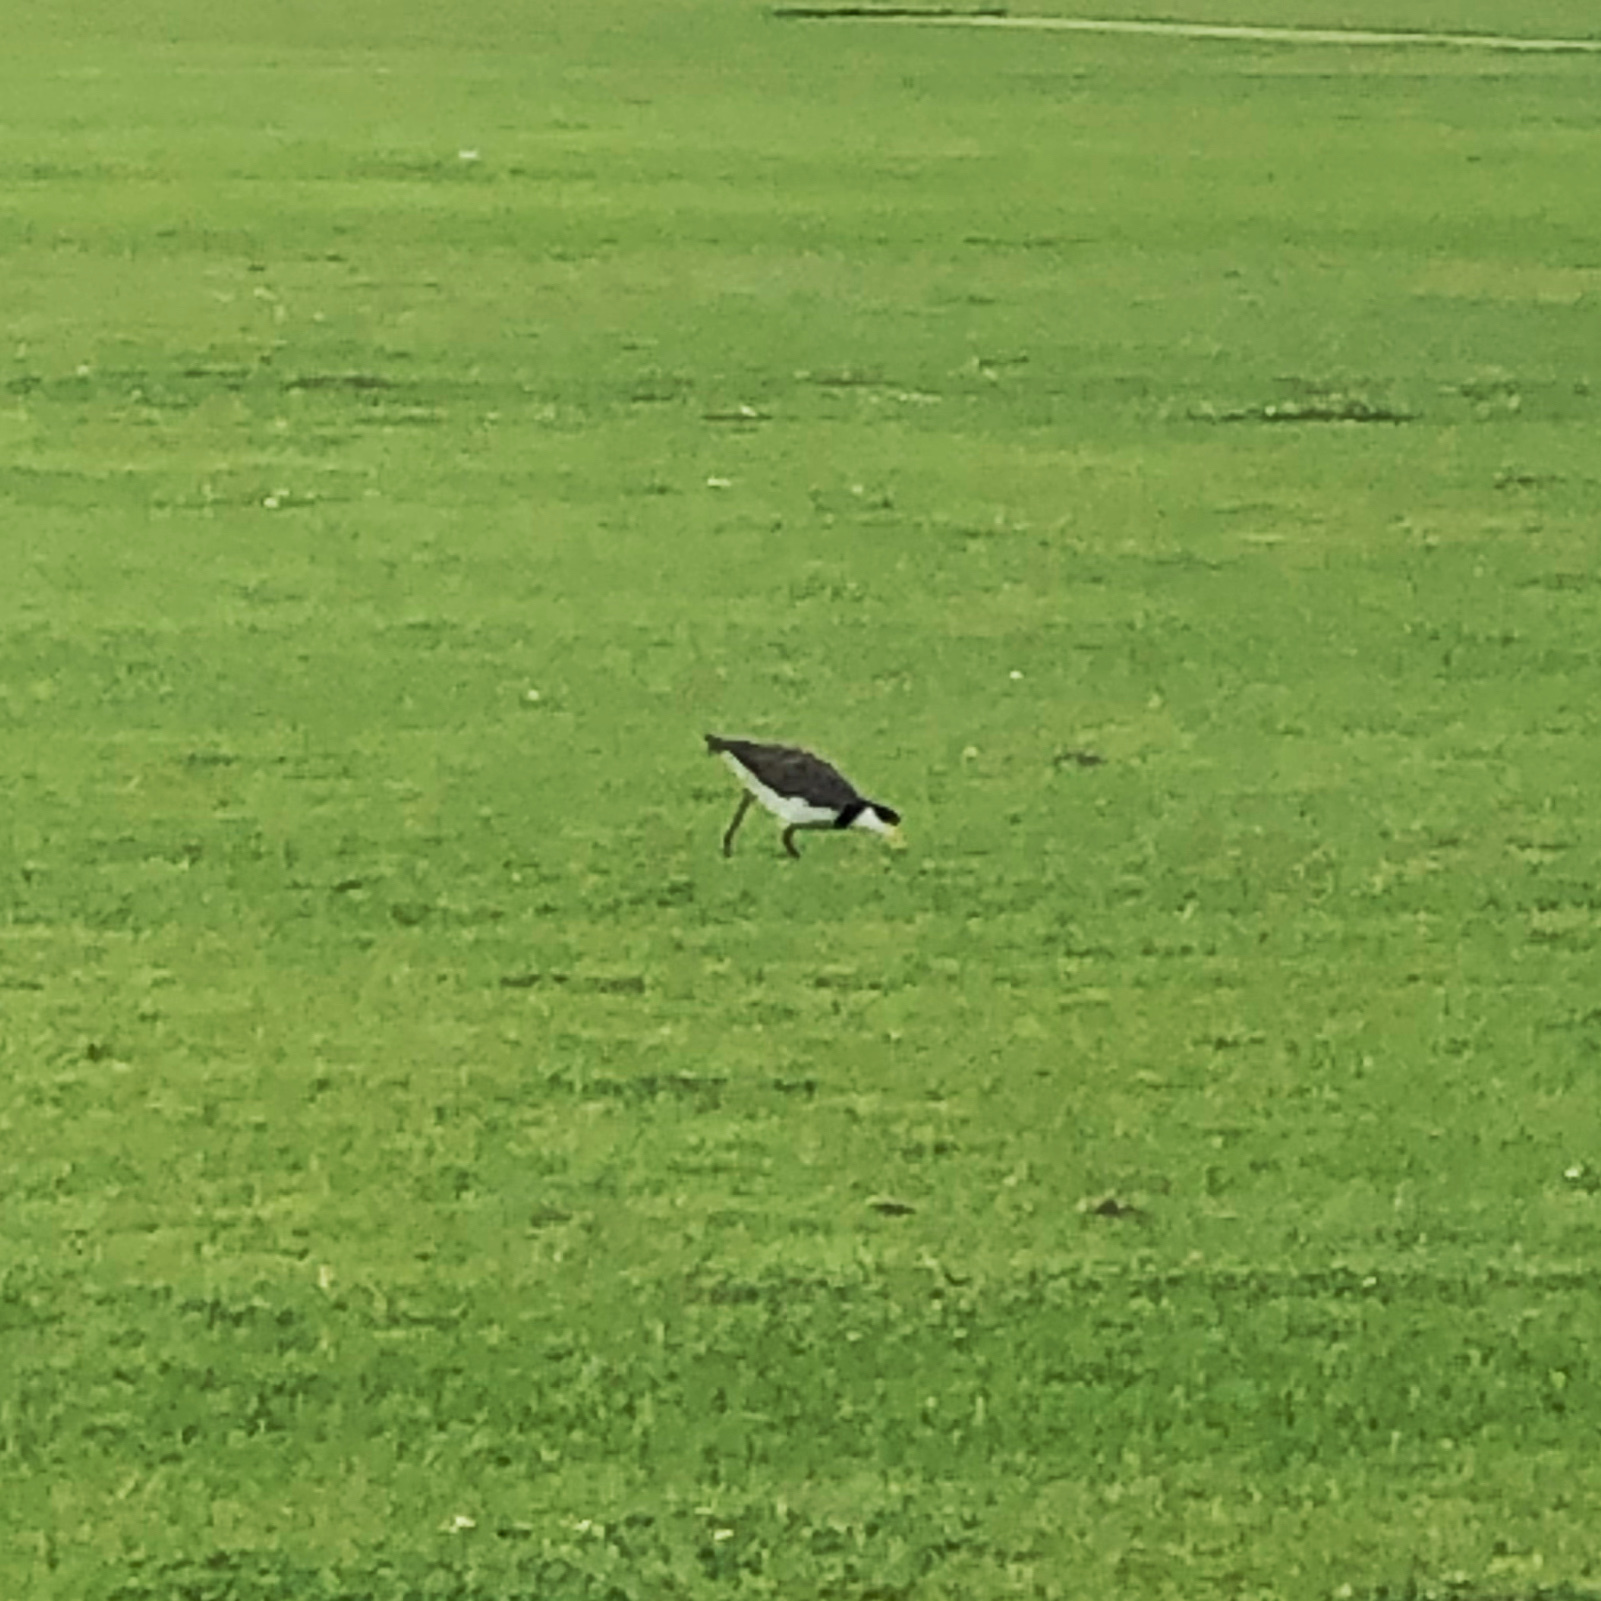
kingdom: Animalia
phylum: Chordata
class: Aves
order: Charadriiformes
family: Charadriidae
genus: Vanellus
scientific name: Vanellus miles
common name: Masked lapwing
